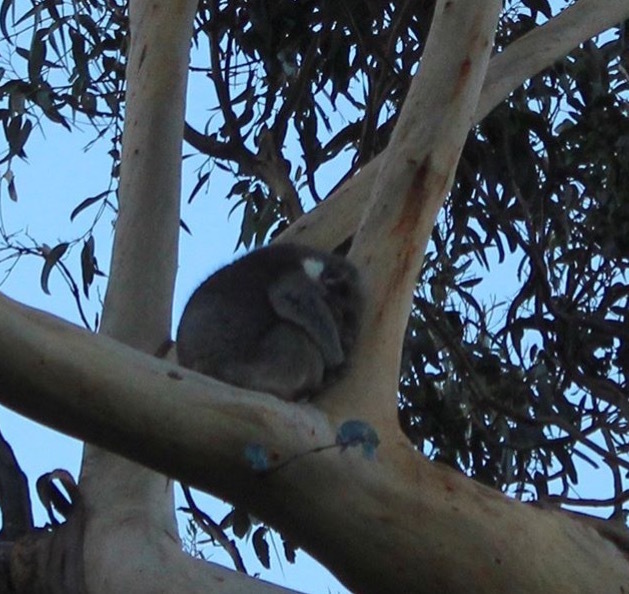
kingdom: Animalia
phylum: Chordata
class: Mammalia
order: Diprotodontia
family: Phascolarctidae
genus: Phascolarctos
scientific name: Phascolarctos cinereus
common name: Koala
